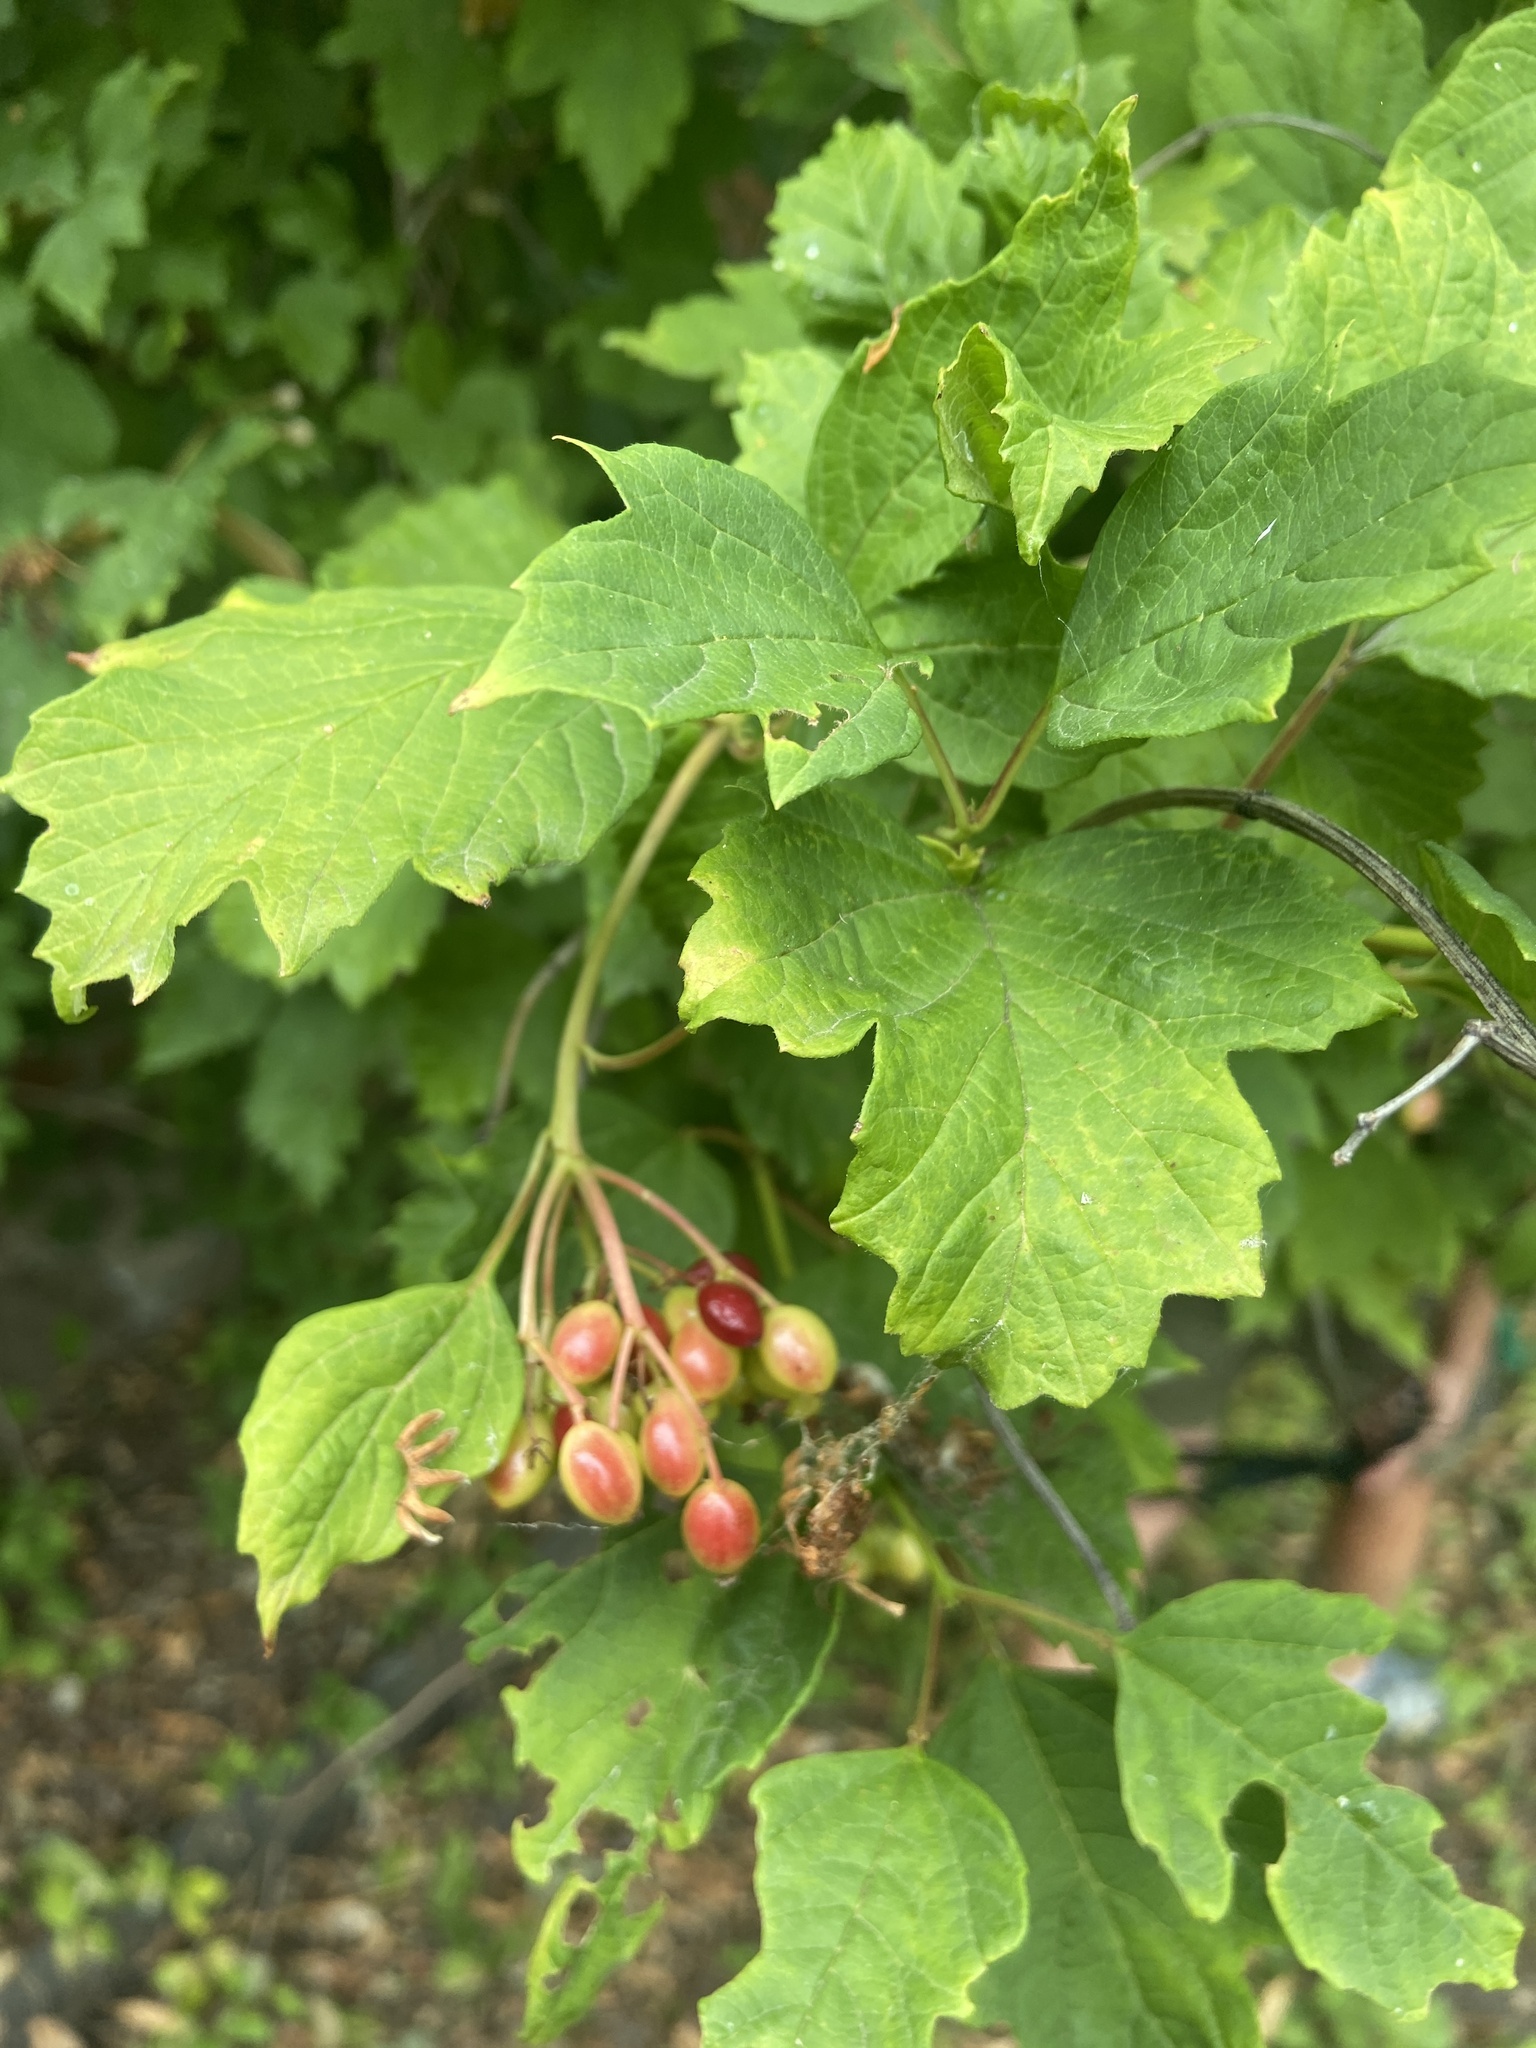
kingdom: Plantae
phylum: Tracheophyta
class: Magnoliopsida
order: Dipsacales
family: Viburnaceae
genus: Viburnum
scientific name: Viburnum opulus
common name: Guelder-rose
